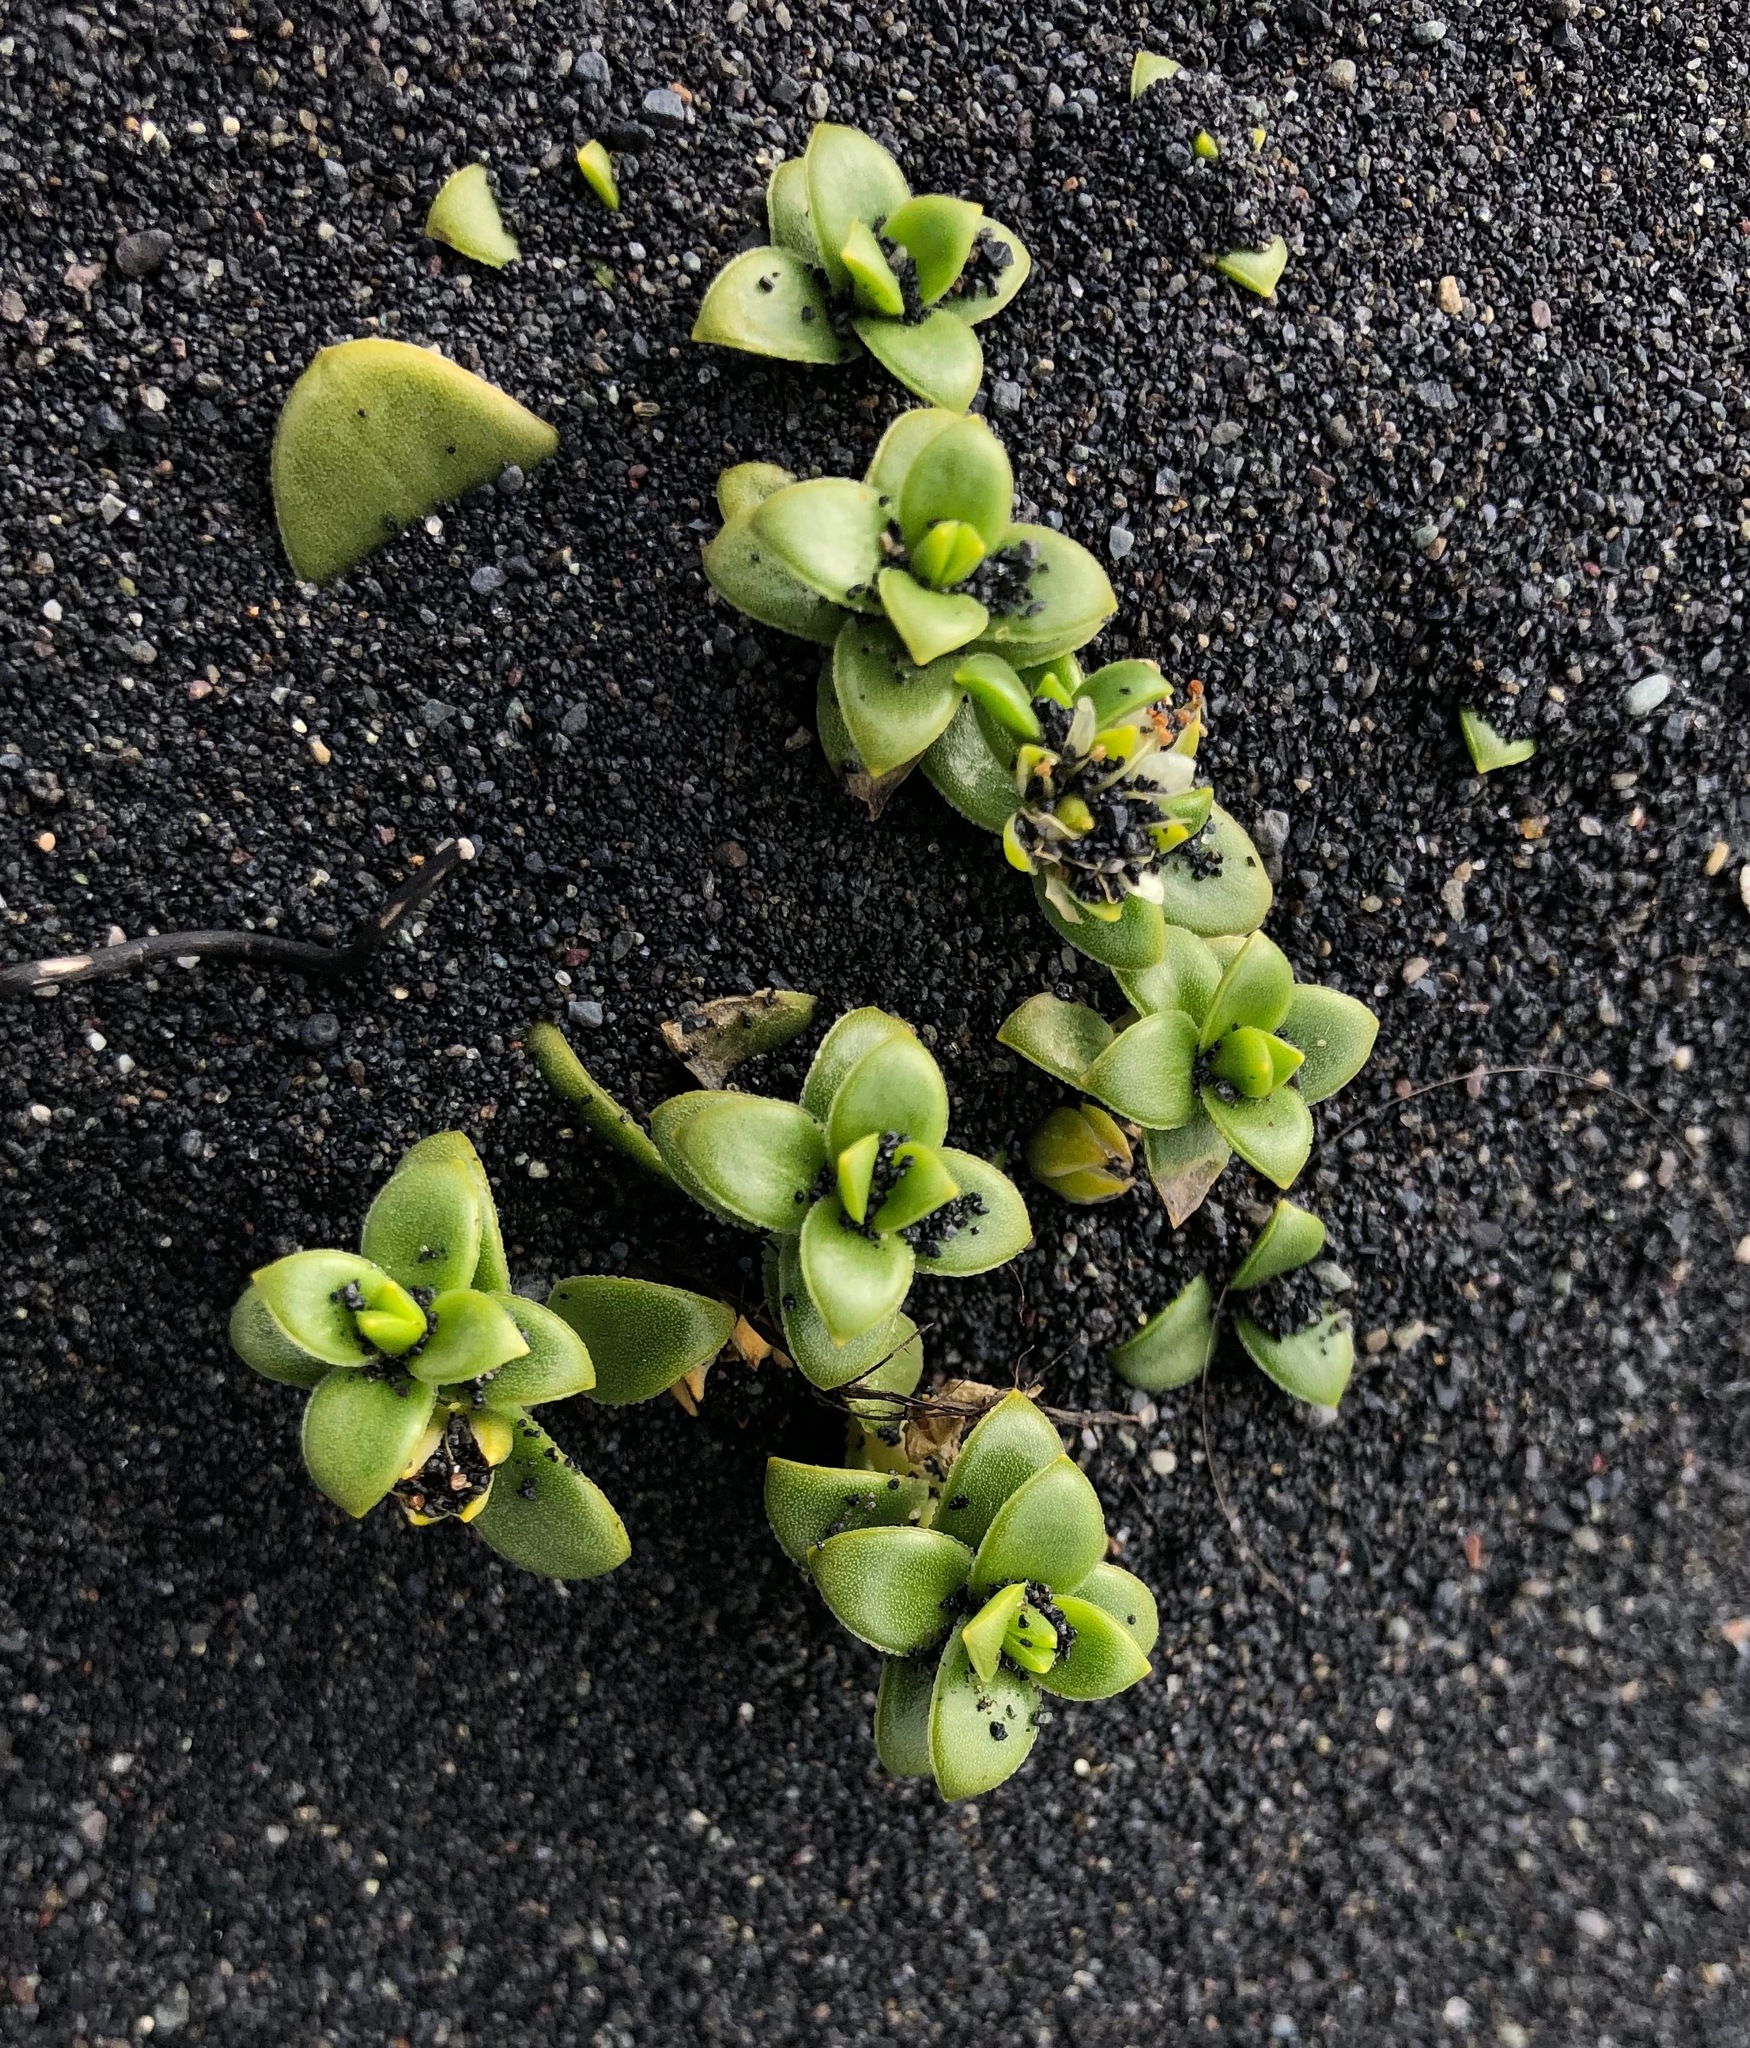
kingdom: Plantae
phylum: Tracheophyta
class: Magnoliopsida
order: Caryophyllales
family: Caryophyllaceae
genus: Honckenya
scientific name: Honckenya peploides
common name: Sea sandwort
